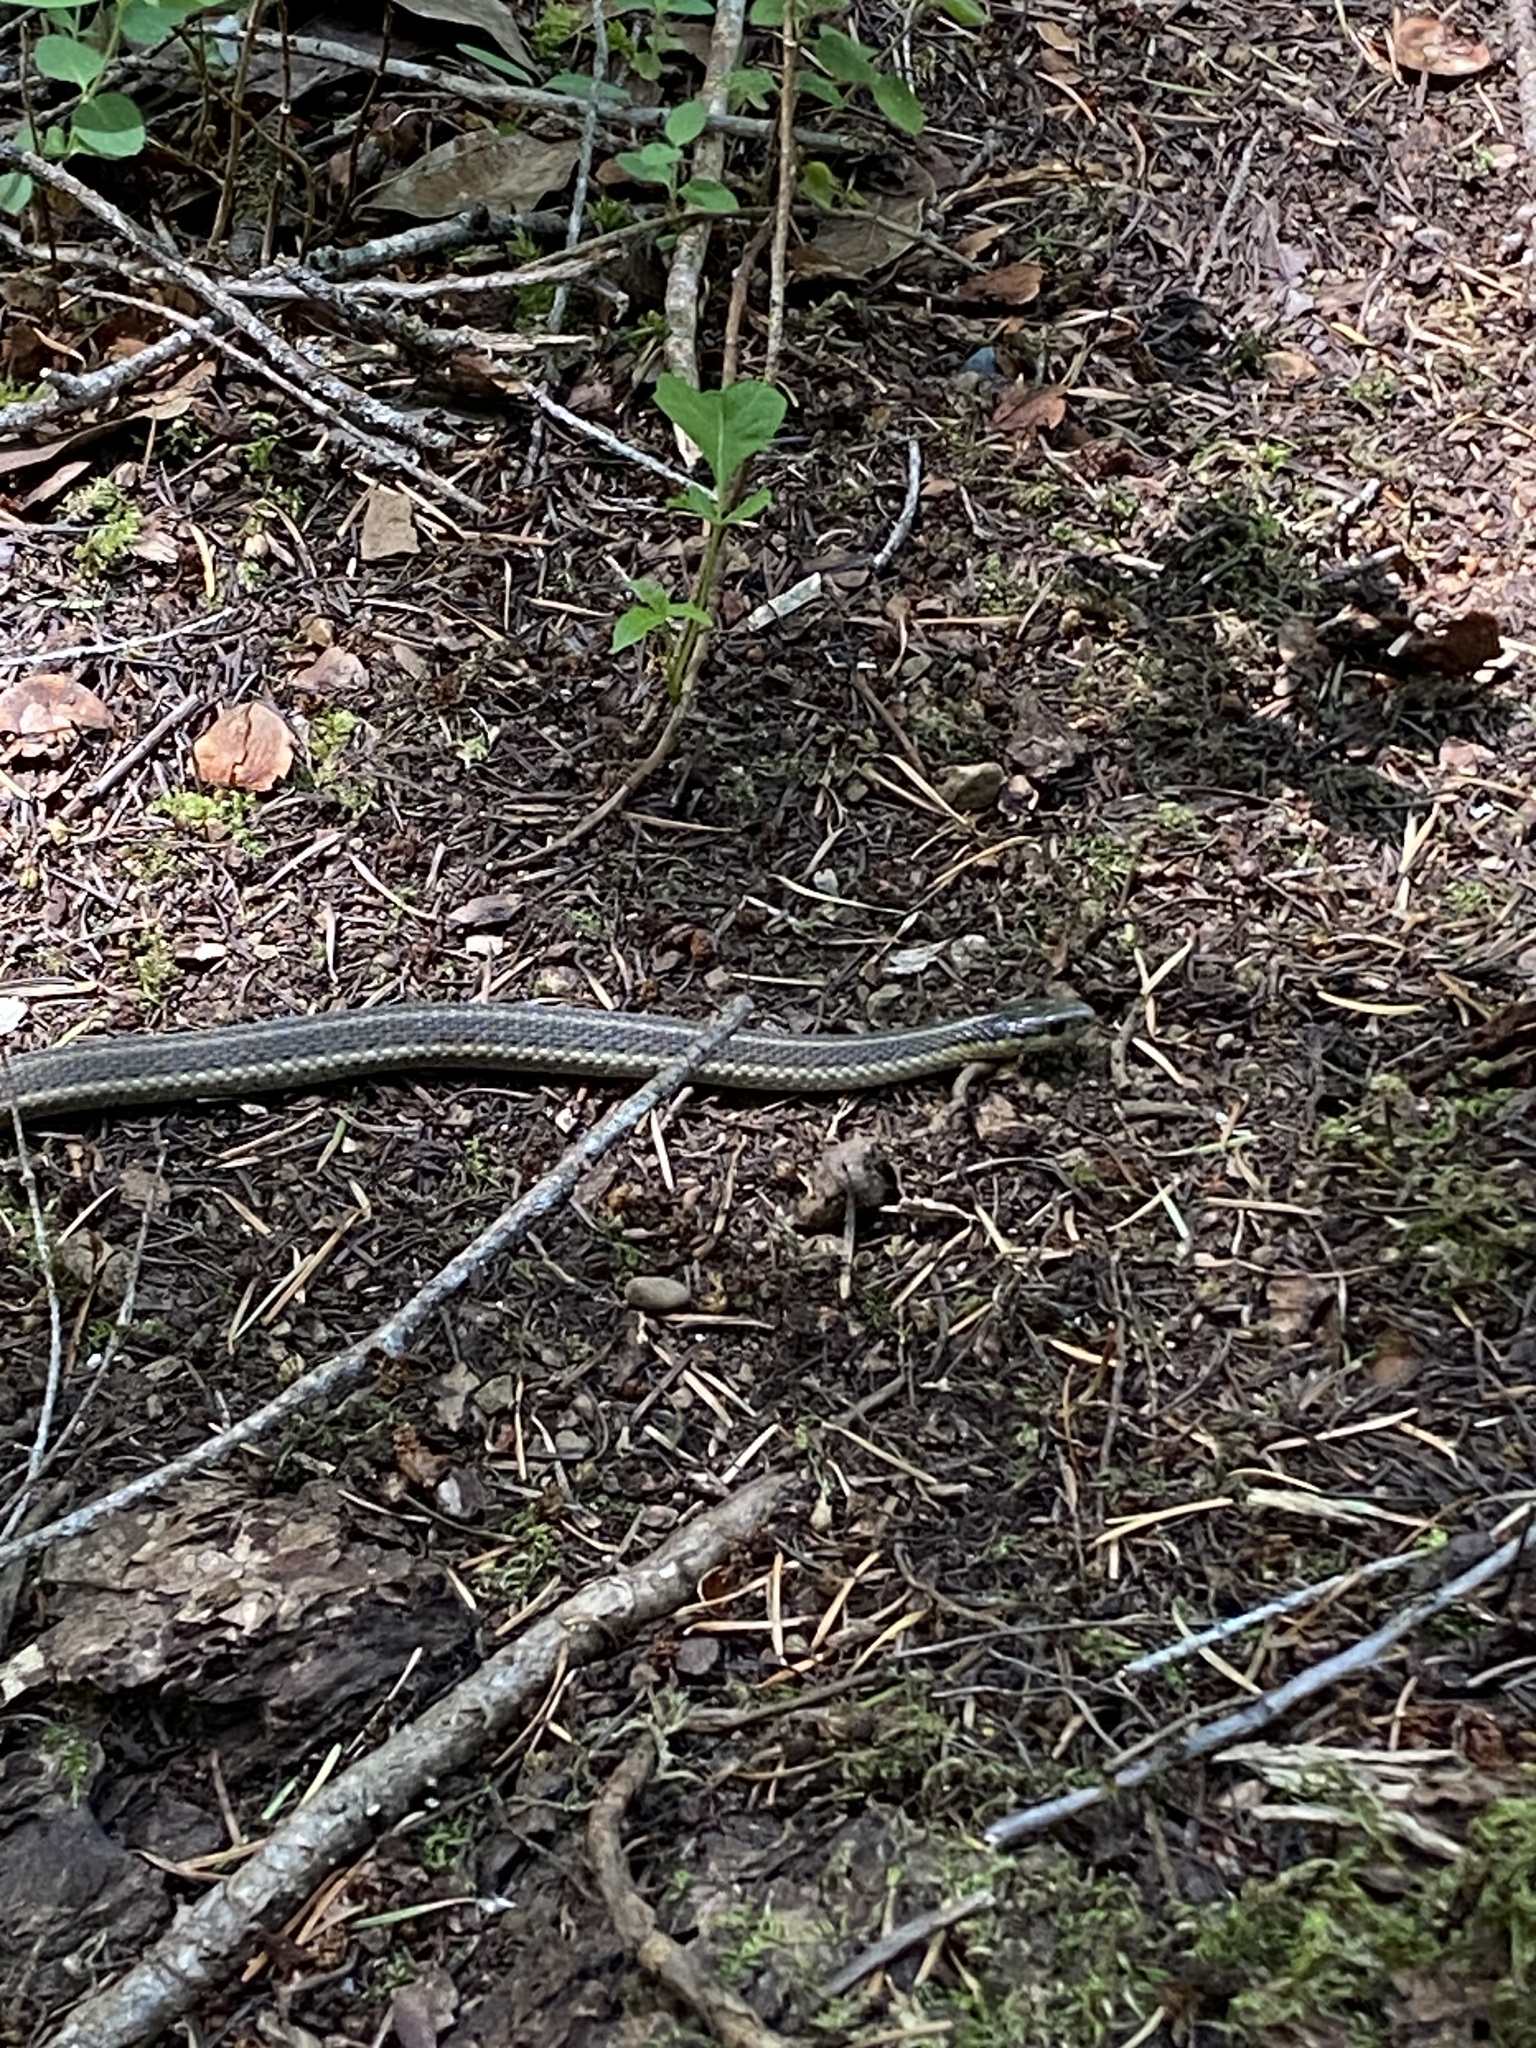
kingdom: Animalia
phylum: Chordata
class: Squamata
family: Colubridae
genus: Thamnophis
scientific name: Thamnophis ordinoides
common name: Northwestern garter snake
